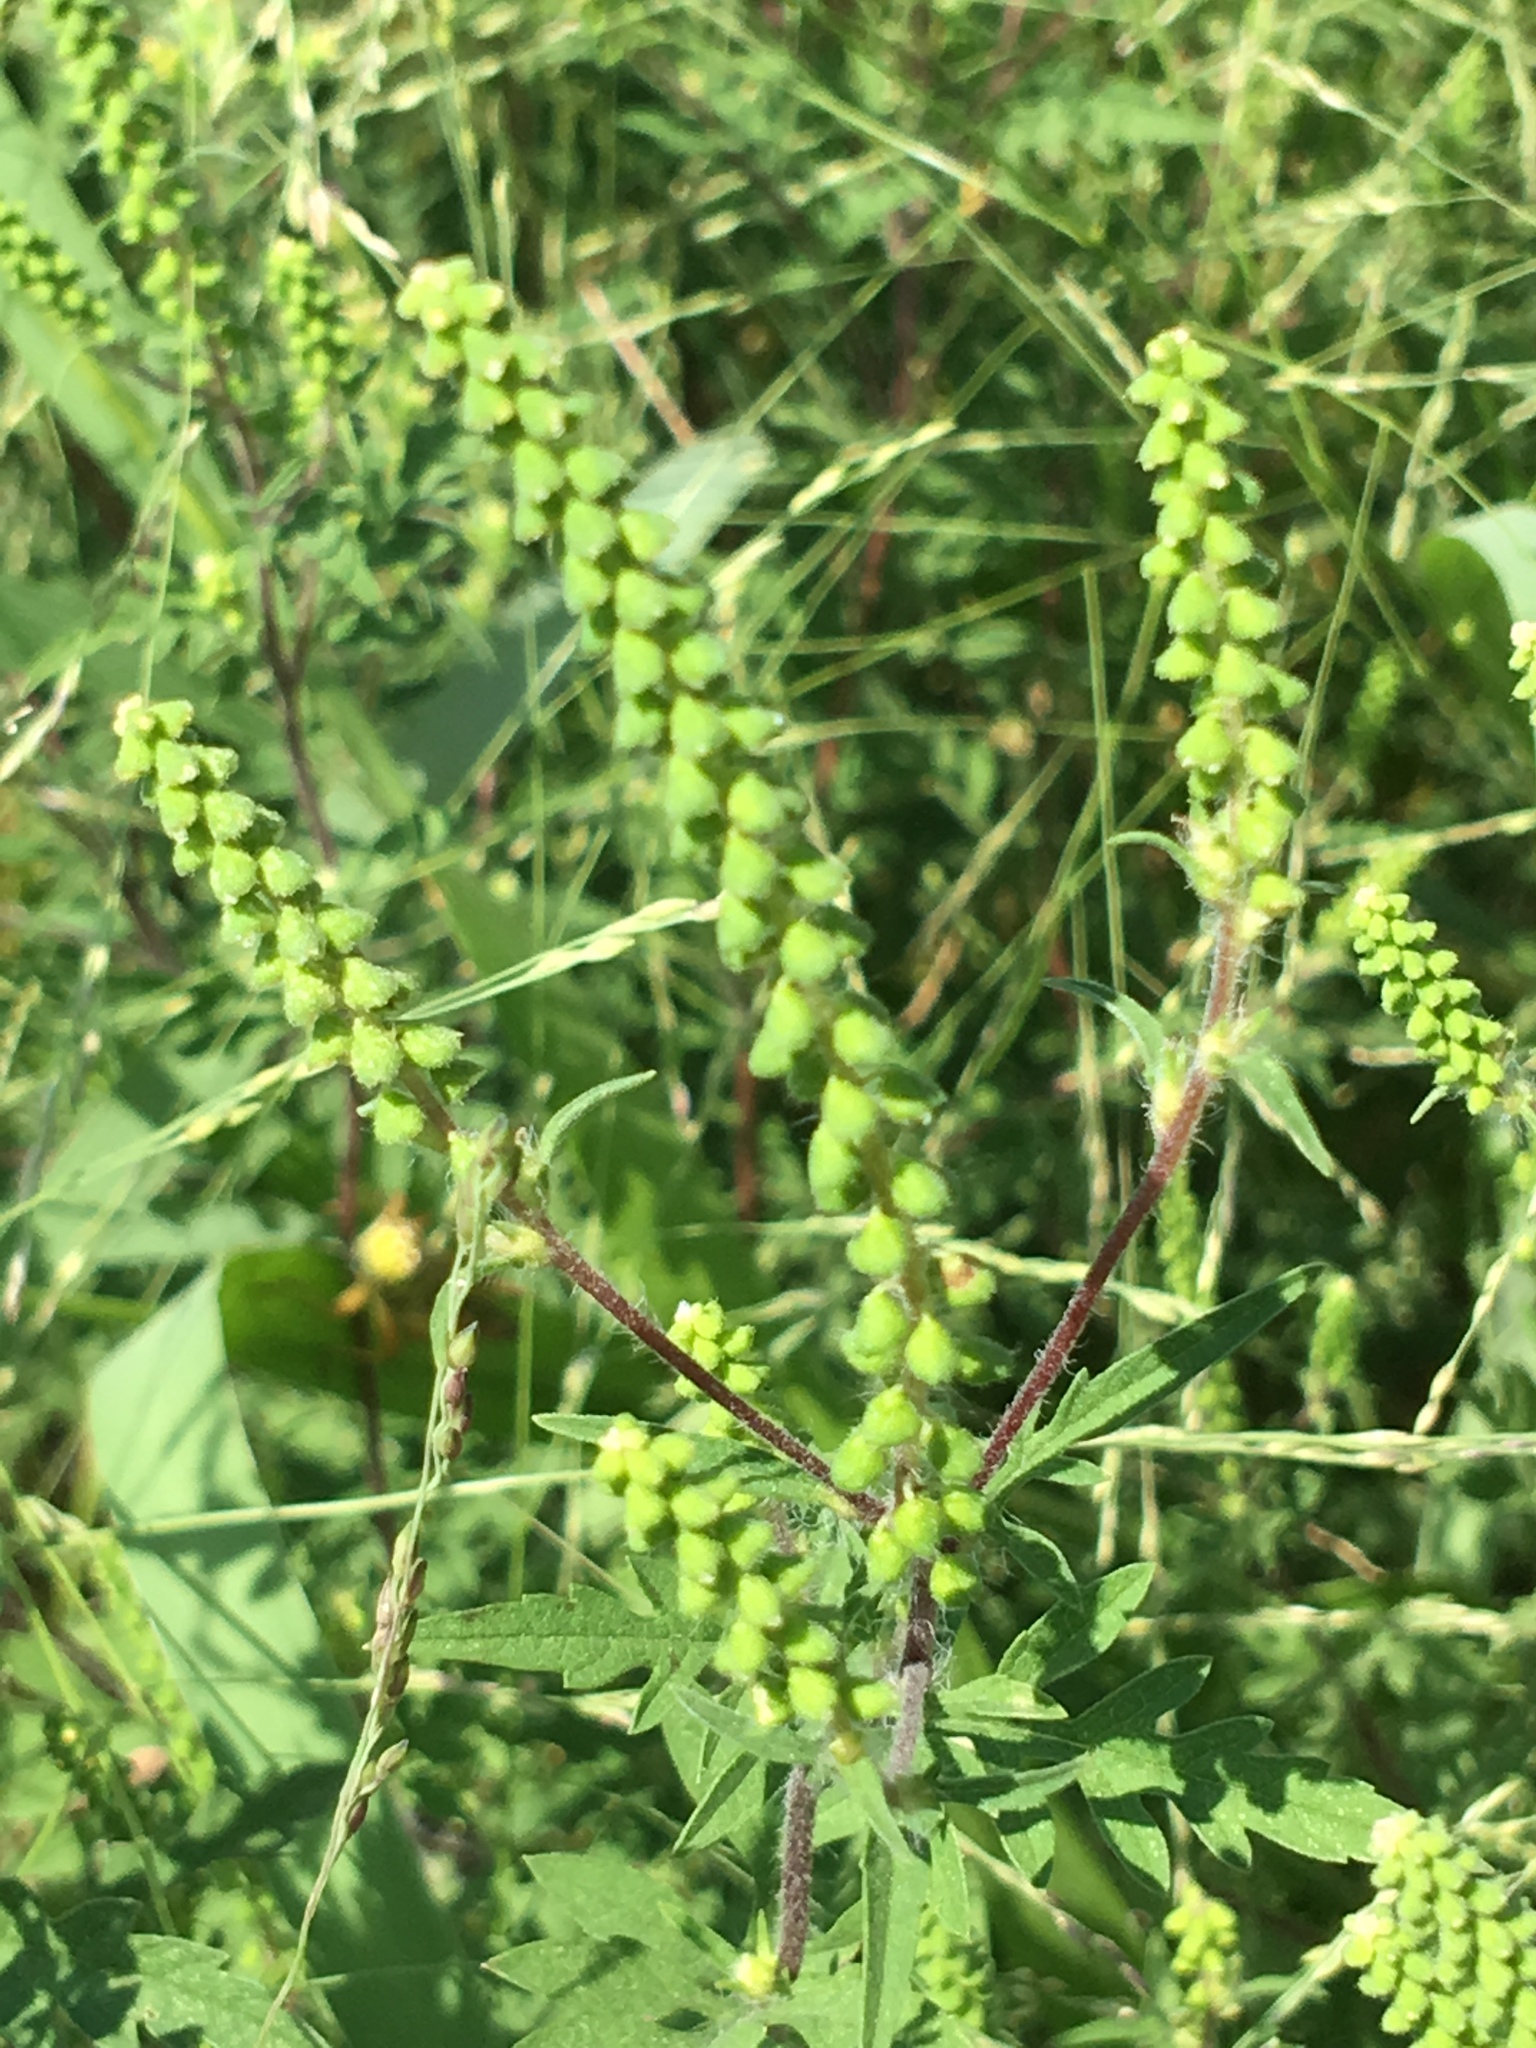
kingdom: Plantae
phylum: Tracheophyta
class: Magnoliopsida
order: Asterales
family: Asteraceae
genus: Ambrosia
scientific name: Ambrosia artemisiifolia
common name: Annual ragweed
